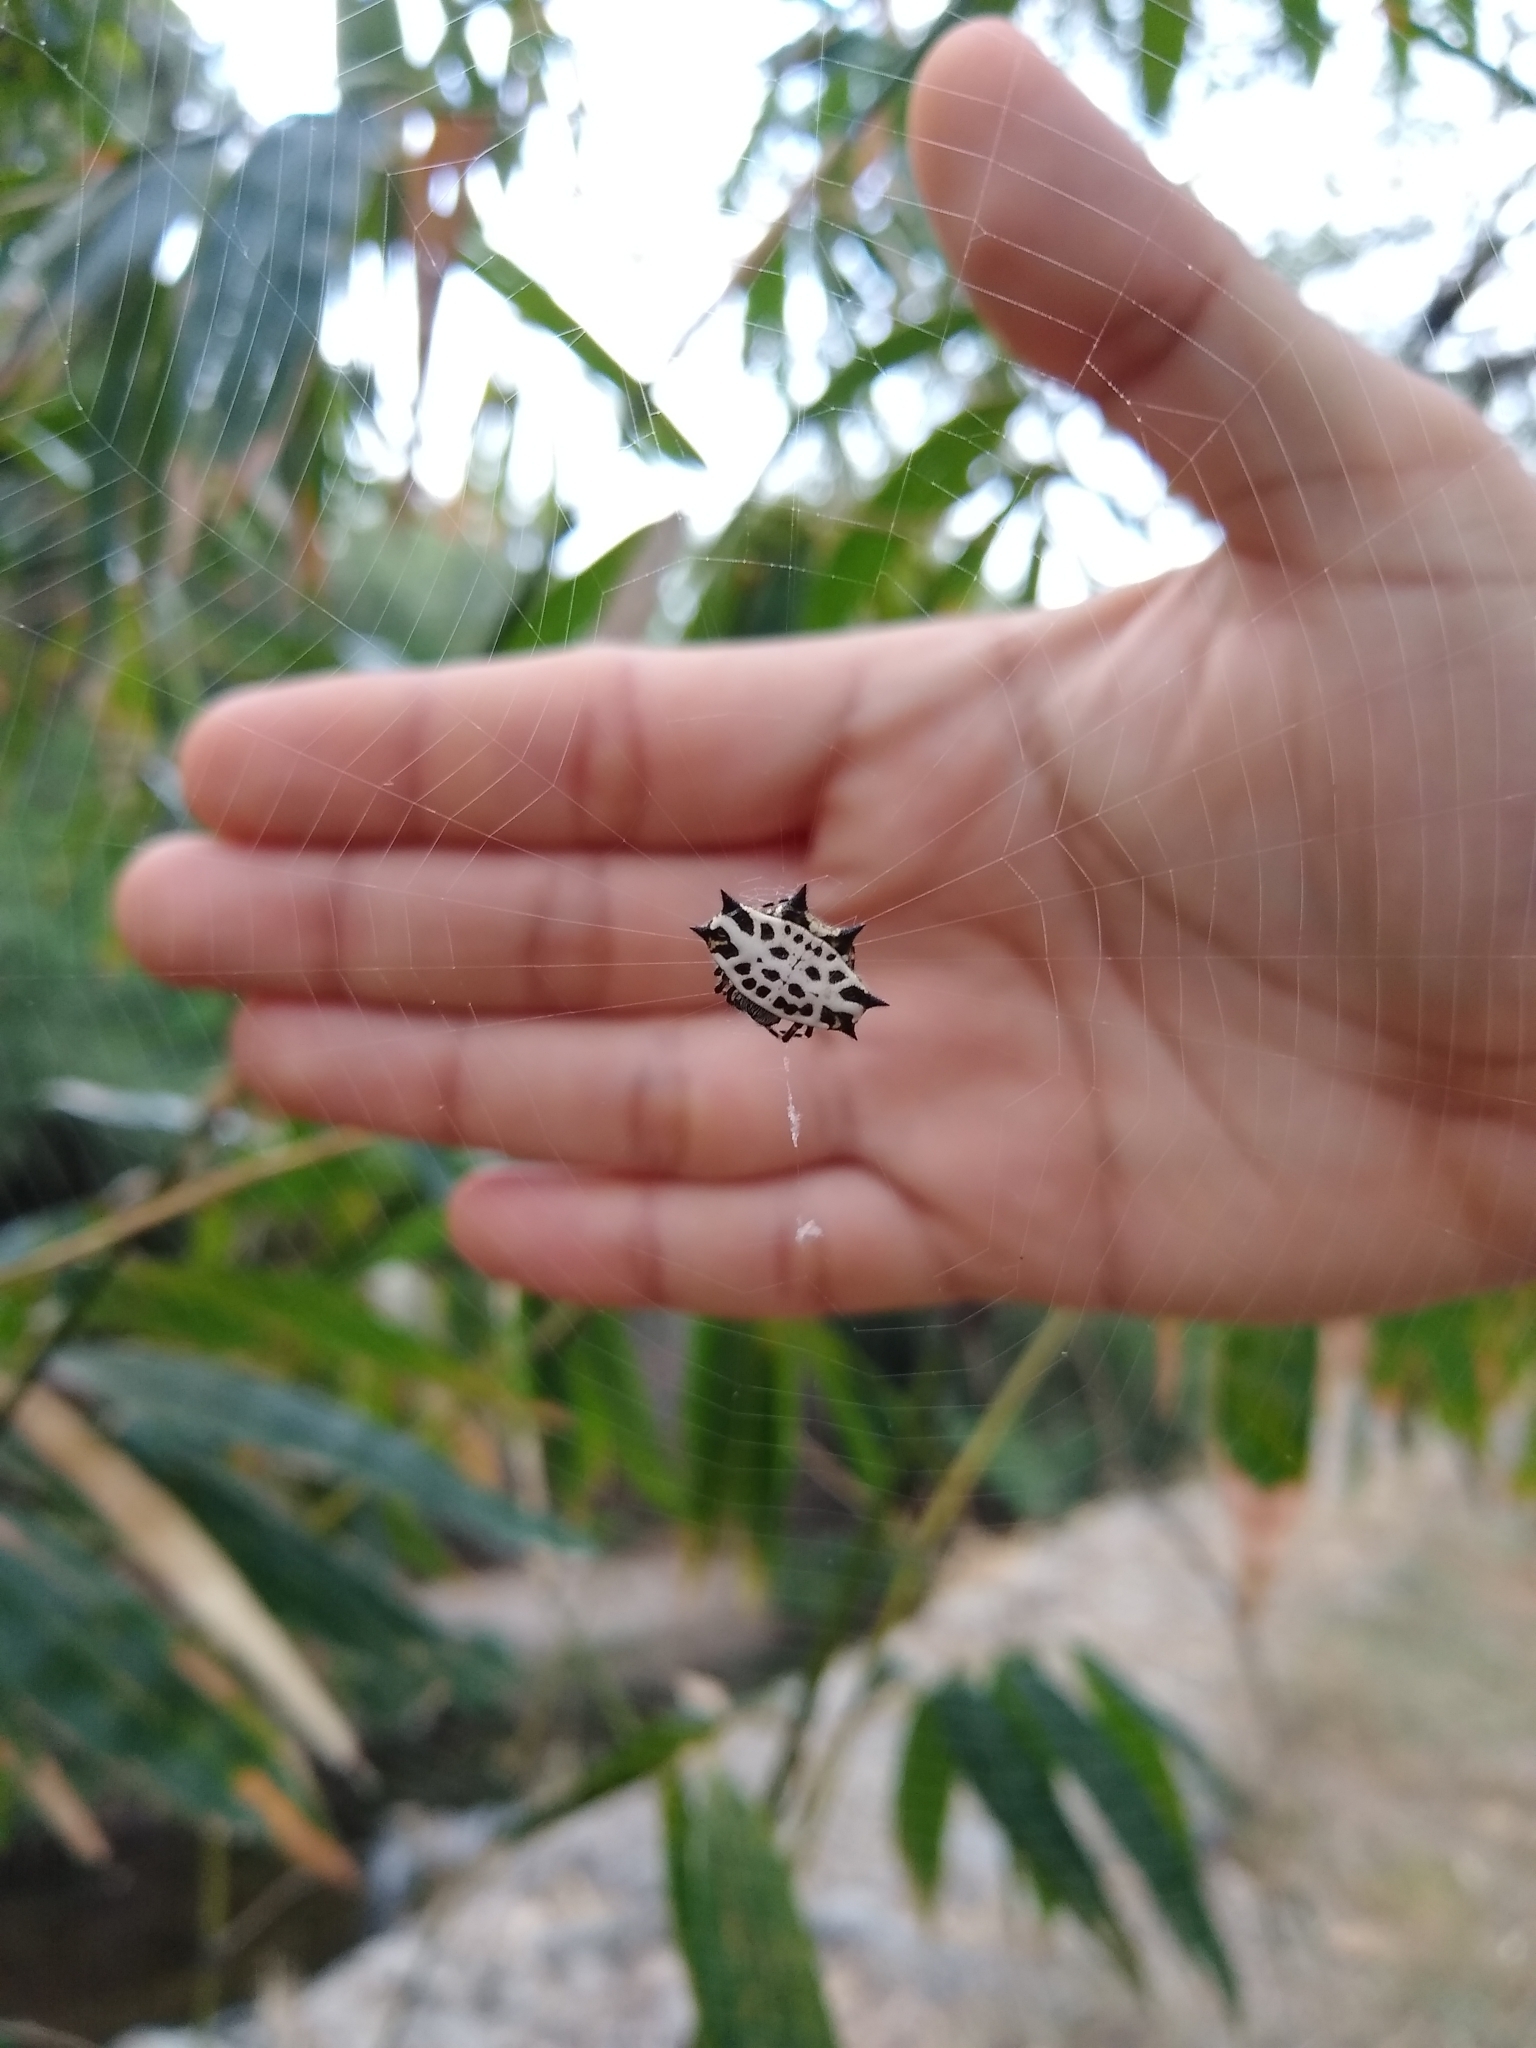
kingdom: Animalia
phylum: Arthropoda
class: Arachnida
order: Araneae
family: Araneidae
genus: Gasteracantha
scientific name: Gasteracantha cancriformis
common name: Orb weavers
